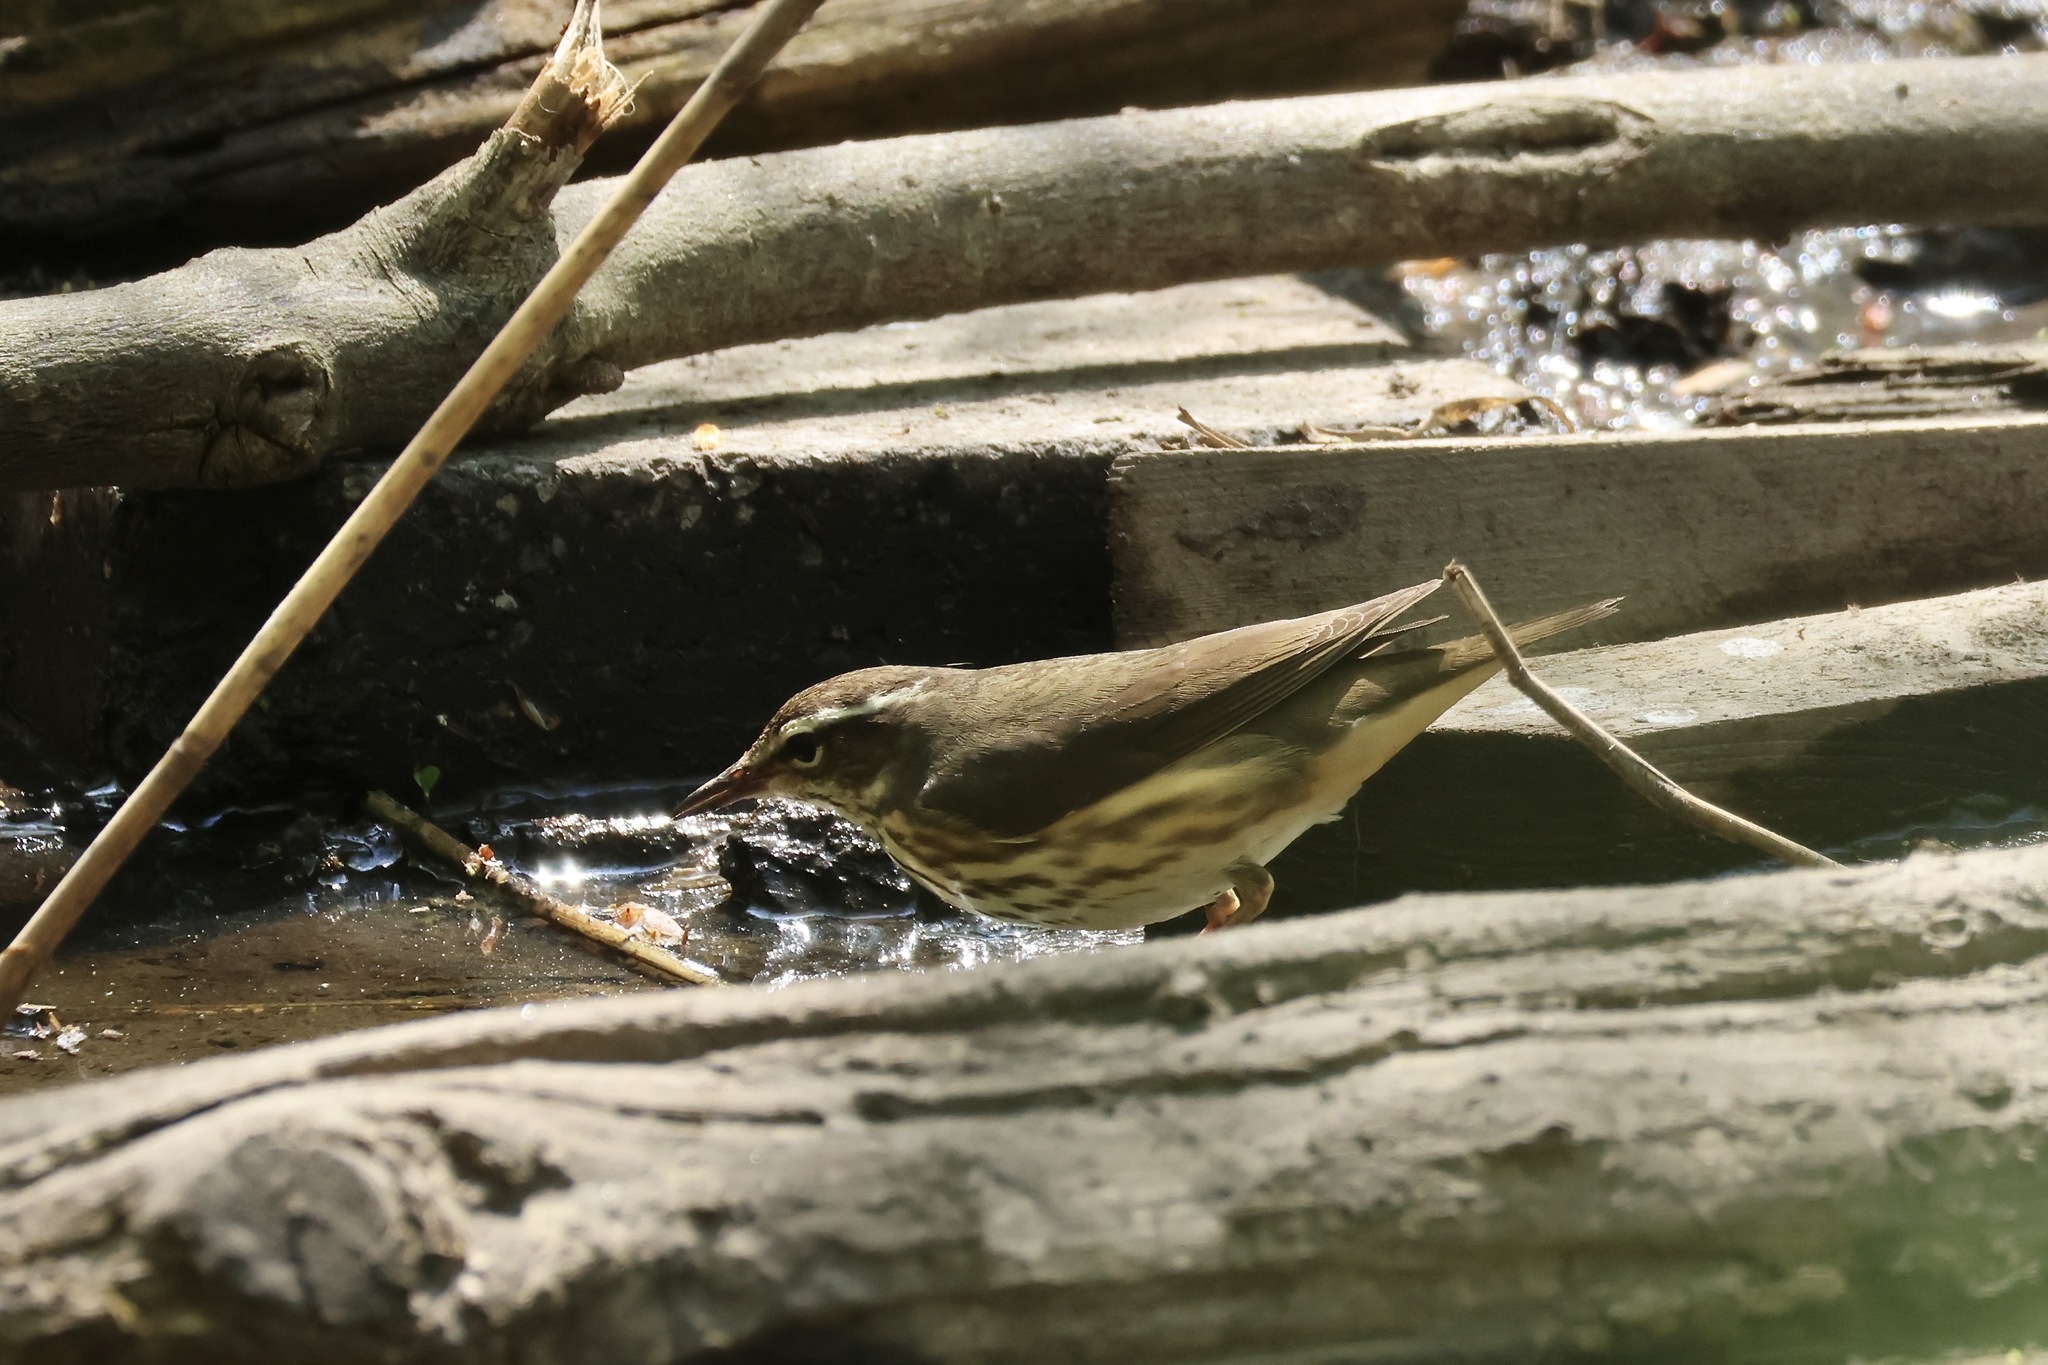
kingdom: Animalia
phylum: Chordata
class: Aves
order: Passeriformes
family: Parulidae
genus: Parkesia
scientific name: Parkesia motacilla
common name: Louisiana waterthrush
